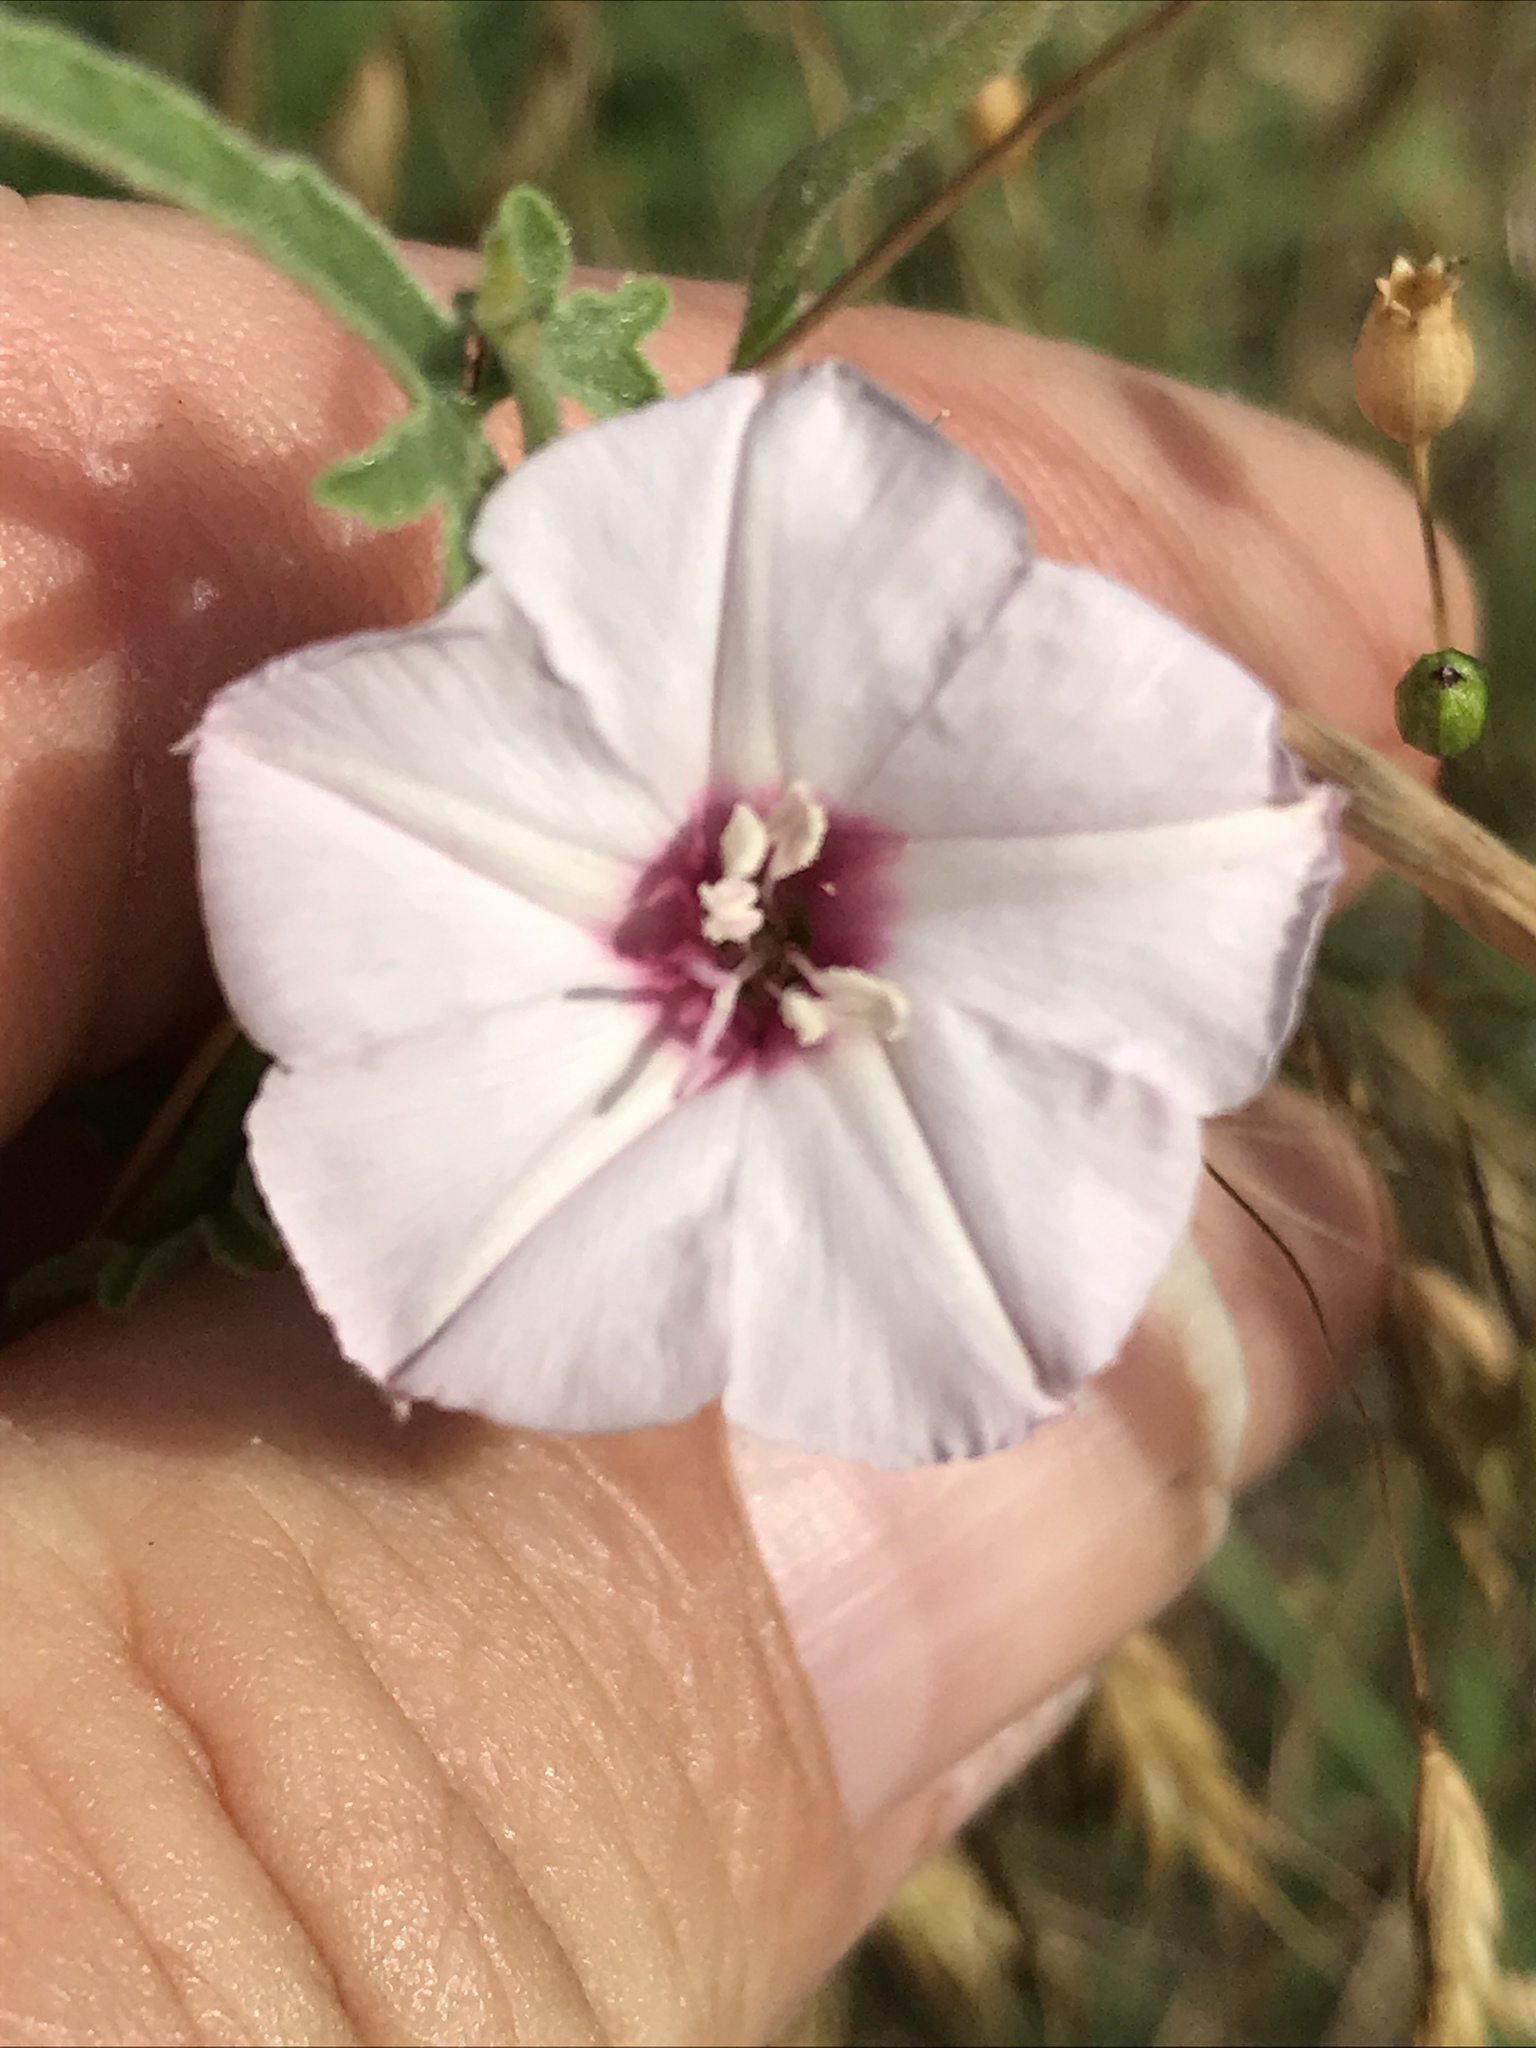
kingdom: Plantae
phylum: Tracheophyta
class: Magnoliopsida
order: Solanales
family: Convolvulaceae
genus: Convolvulus
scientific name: Convolvulus equitans
